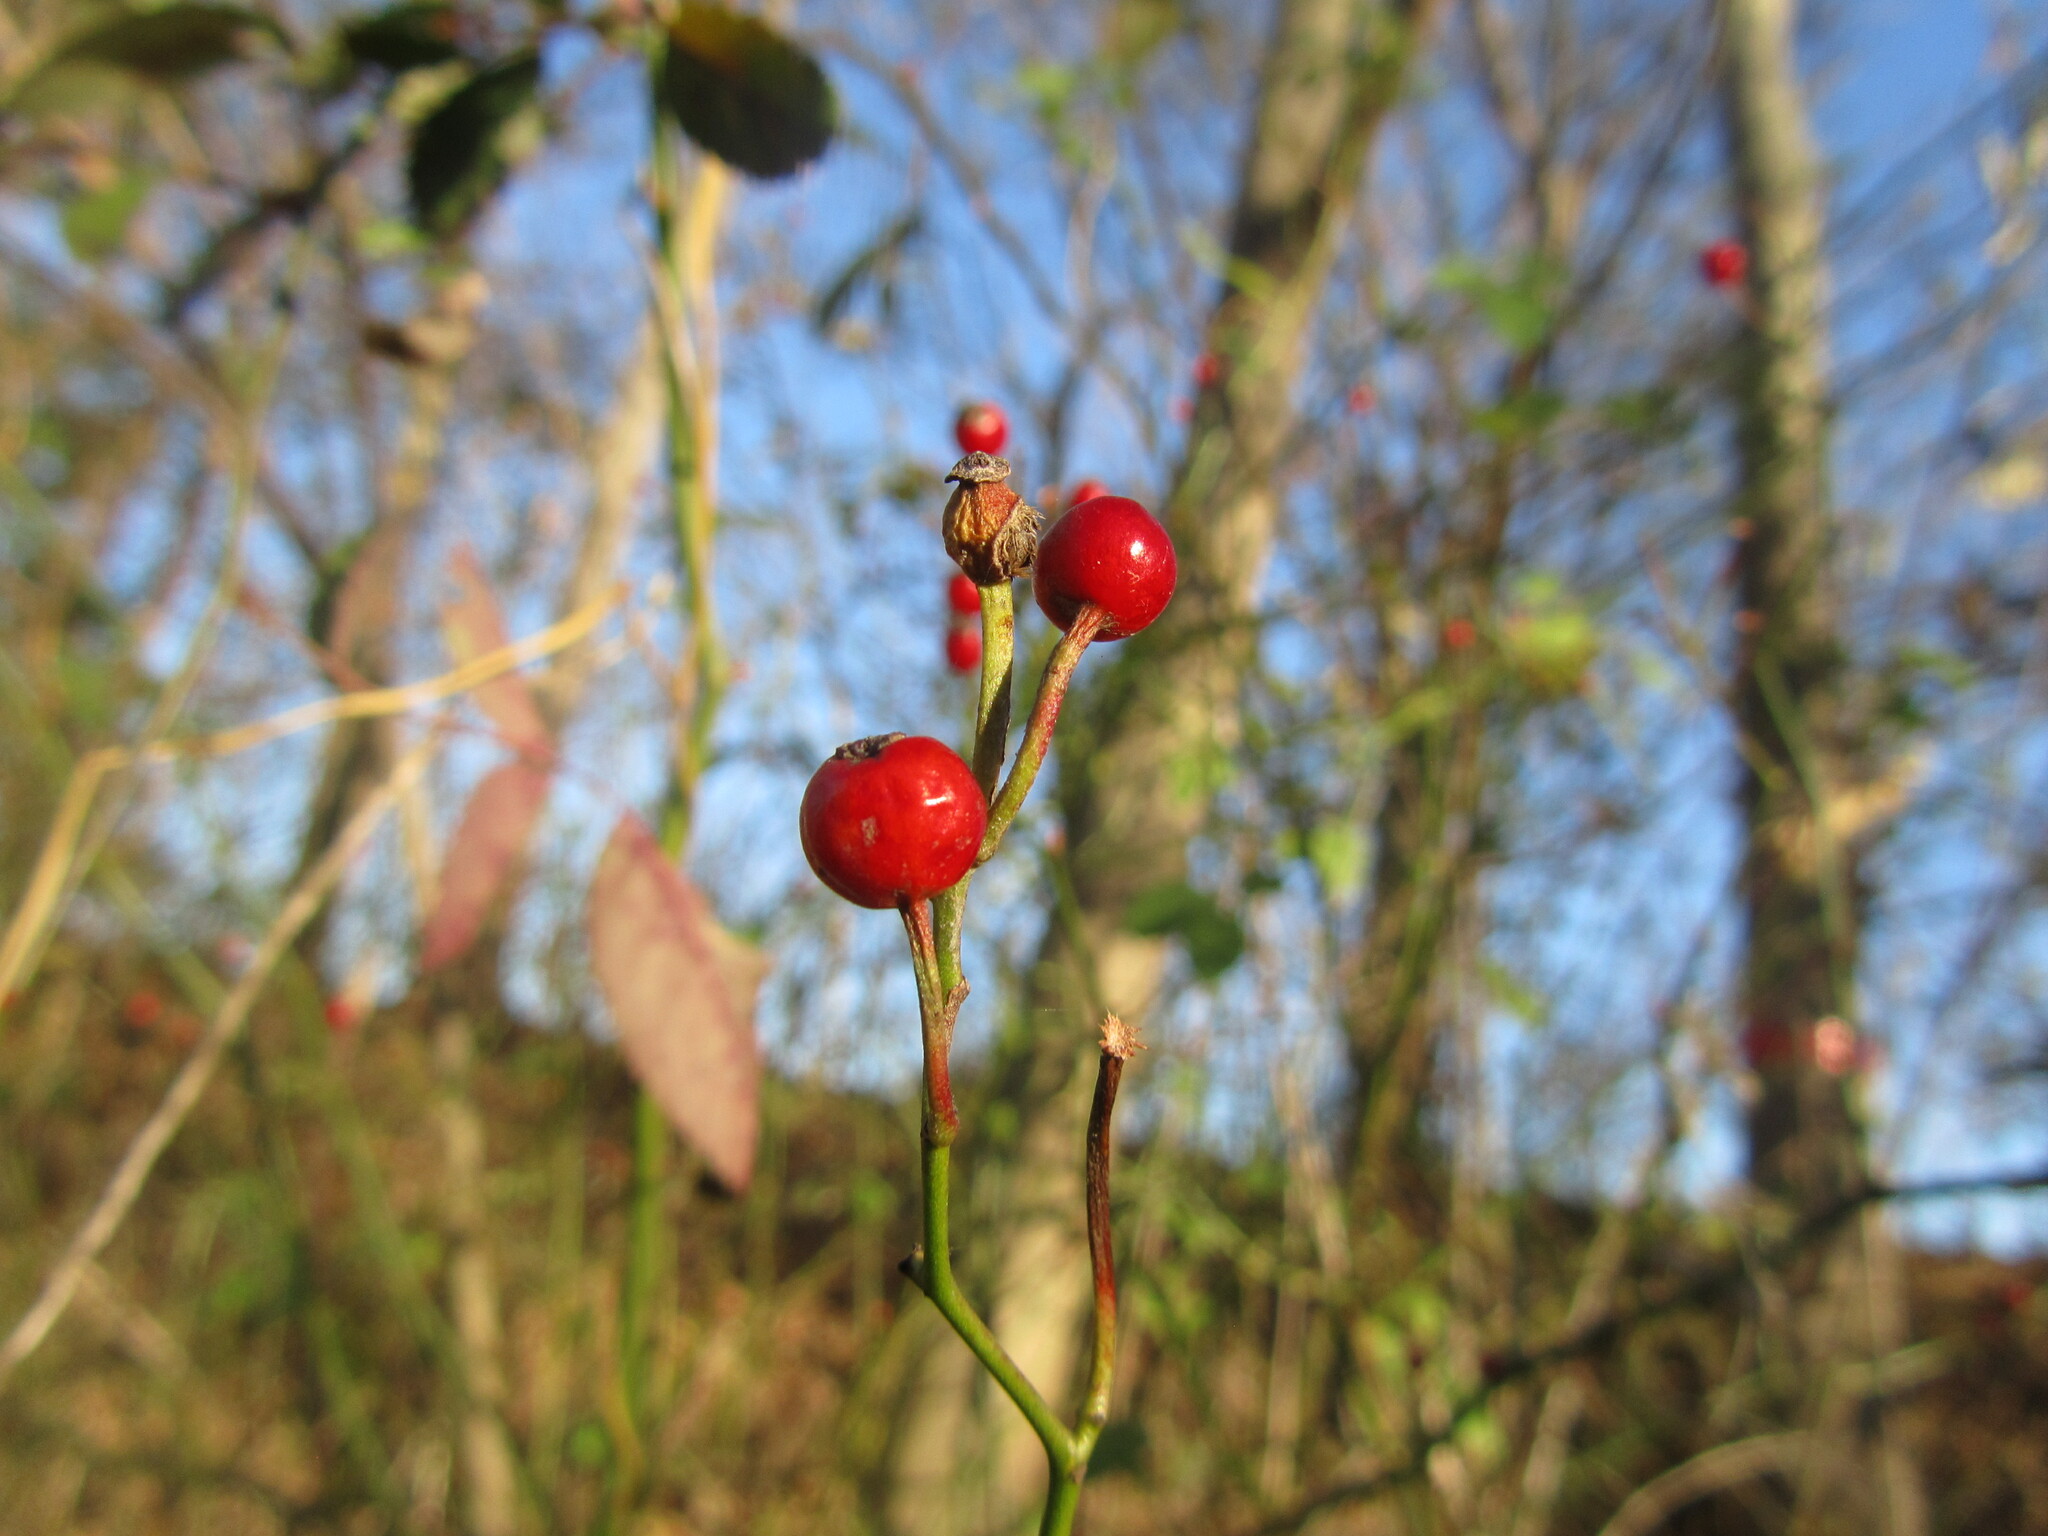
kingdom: Plantae
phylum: Tracheophyta
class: Magnoliopsida
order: Rosales
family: Rosaceae
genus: Rosa
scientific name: Rosa multiflora
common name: Multiflora rose
